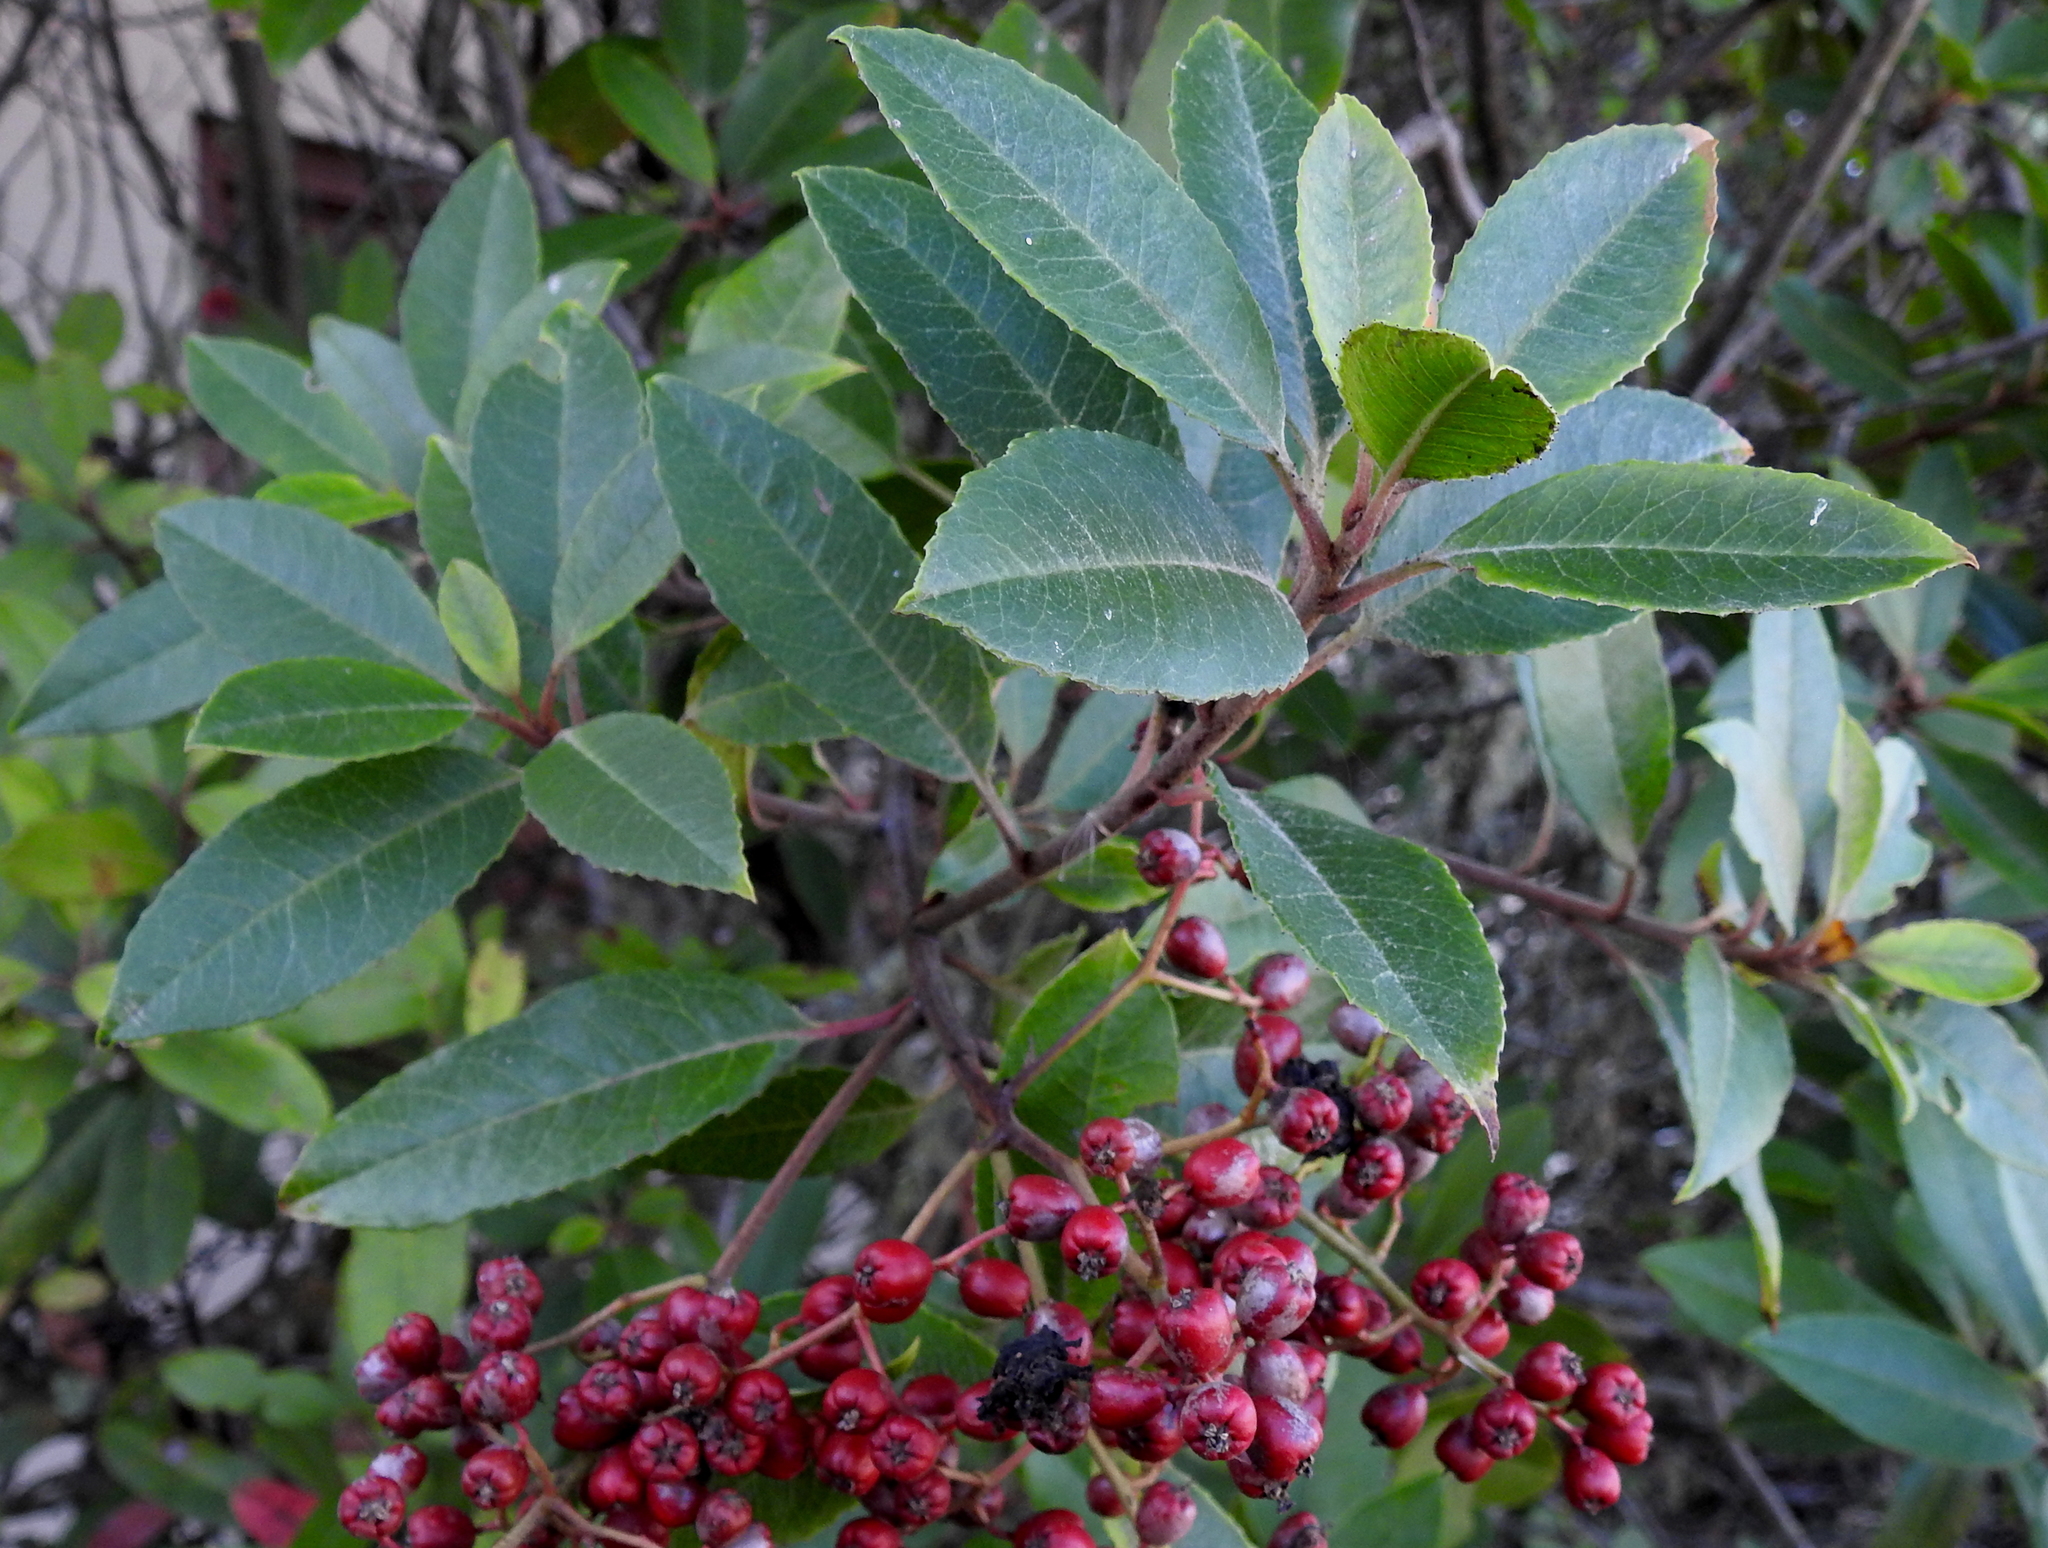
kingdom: Plantae
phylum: Tracheophyta
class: Magnoliopsida
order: Rosales
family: Rosaceae
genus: Heteromeles
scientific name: Heteromeles arbutifolia
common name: California-holly
